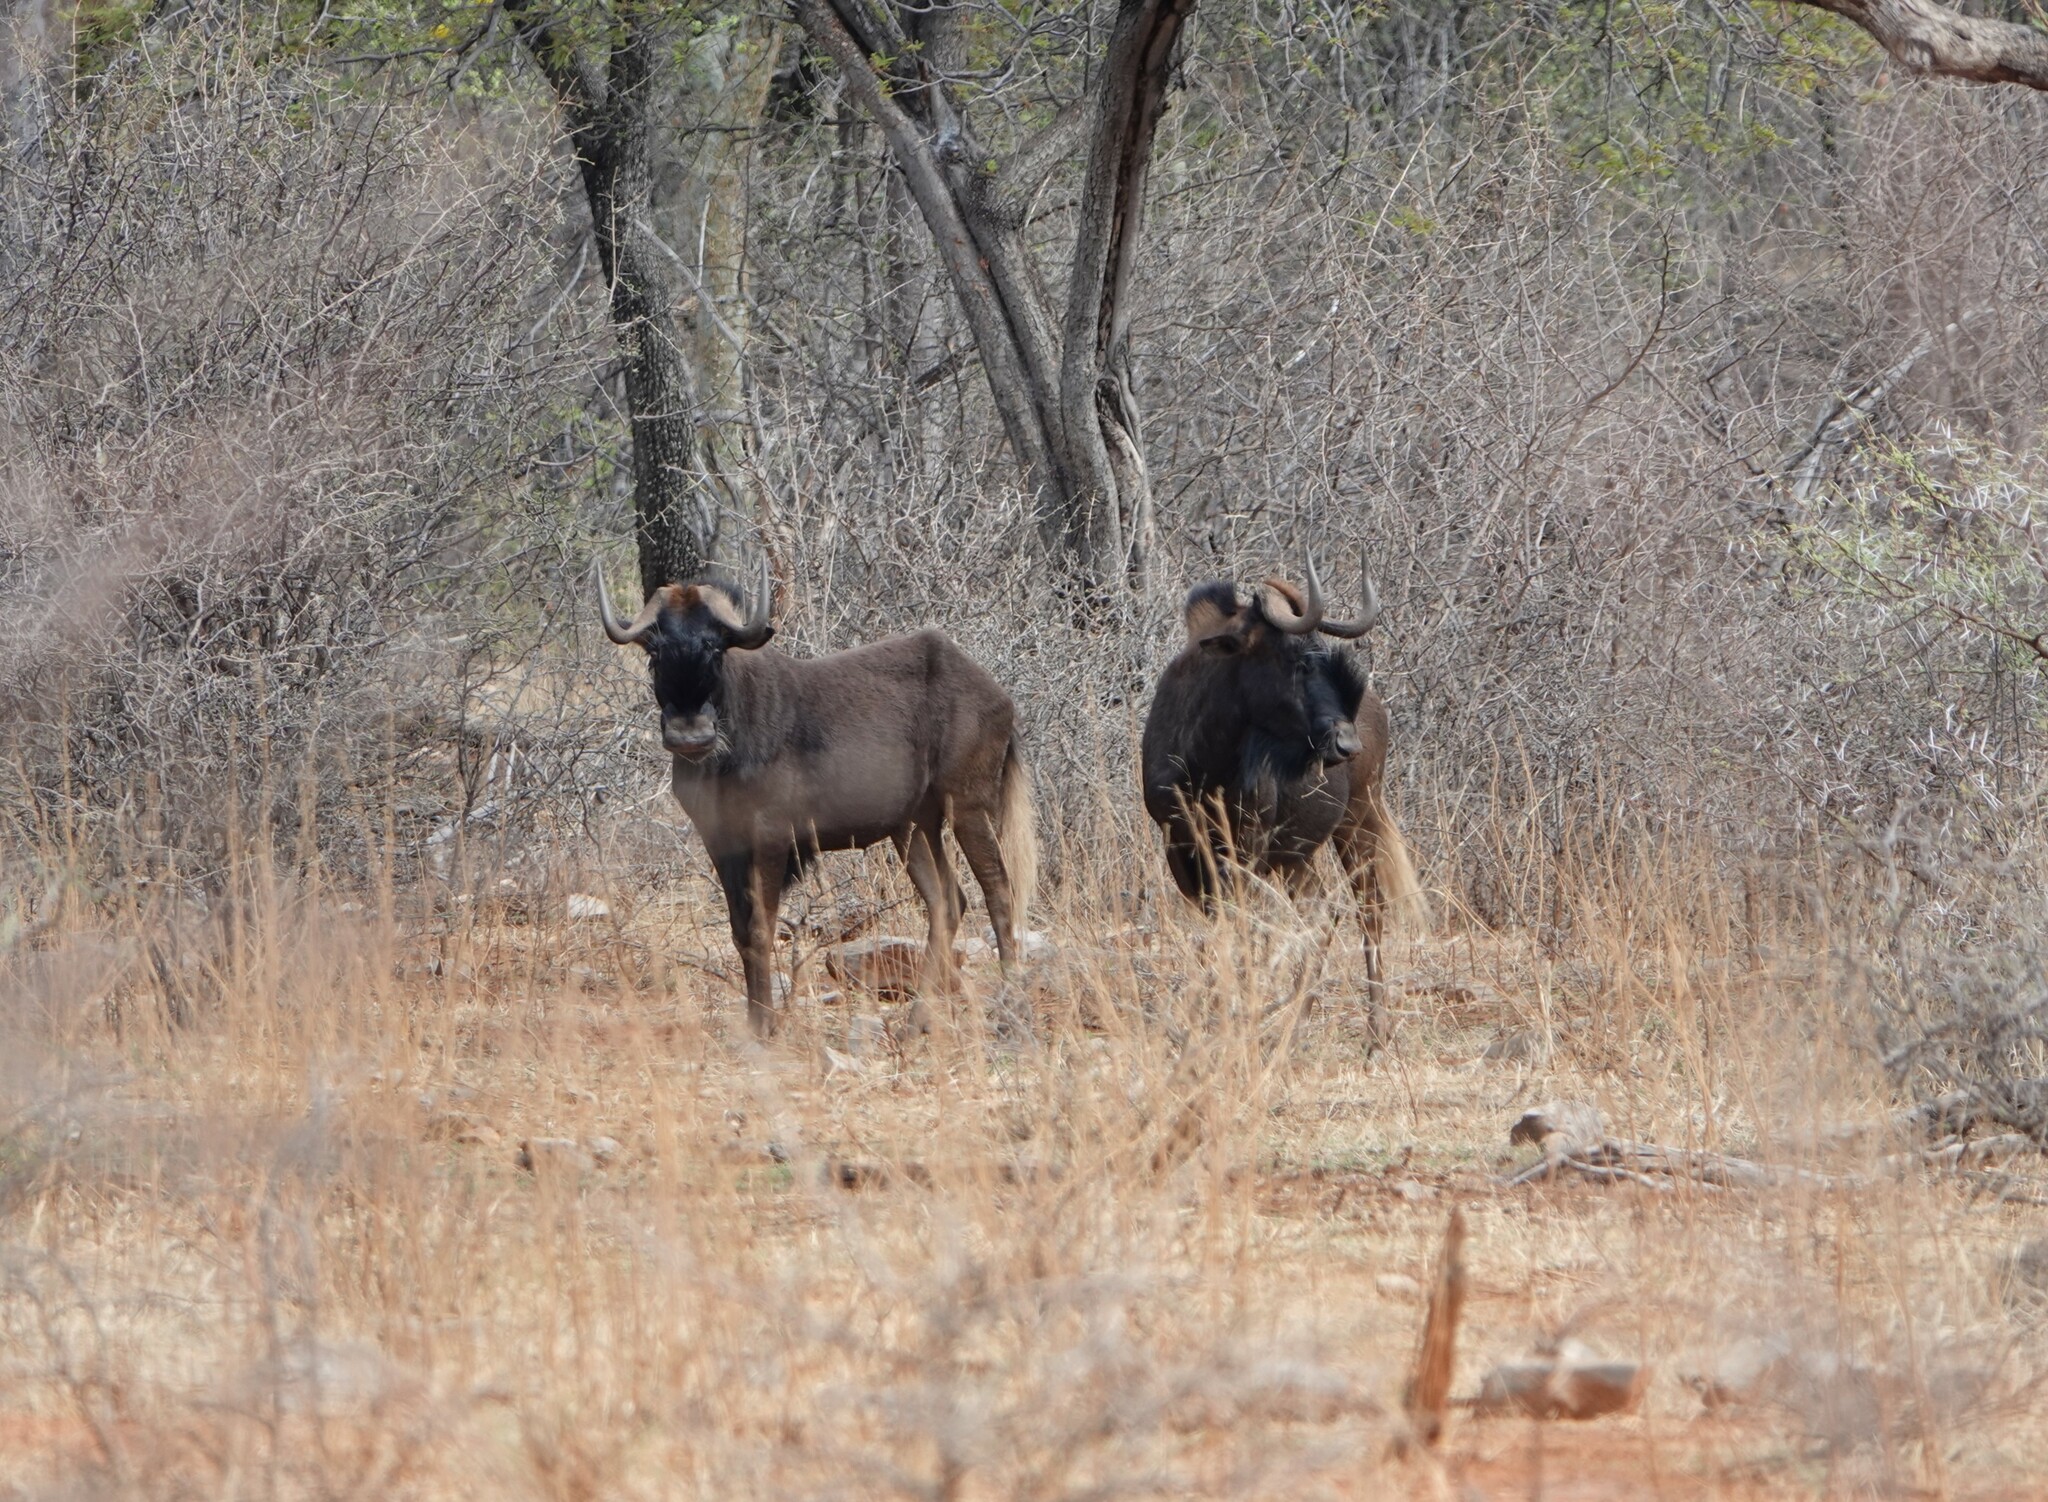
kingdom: Animalia
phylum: Chordata
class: Mammalia
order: Artiodactyla
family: Bovidae
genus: Connochaetes
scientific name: Connochaetes gnou
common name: Black wildebeest
